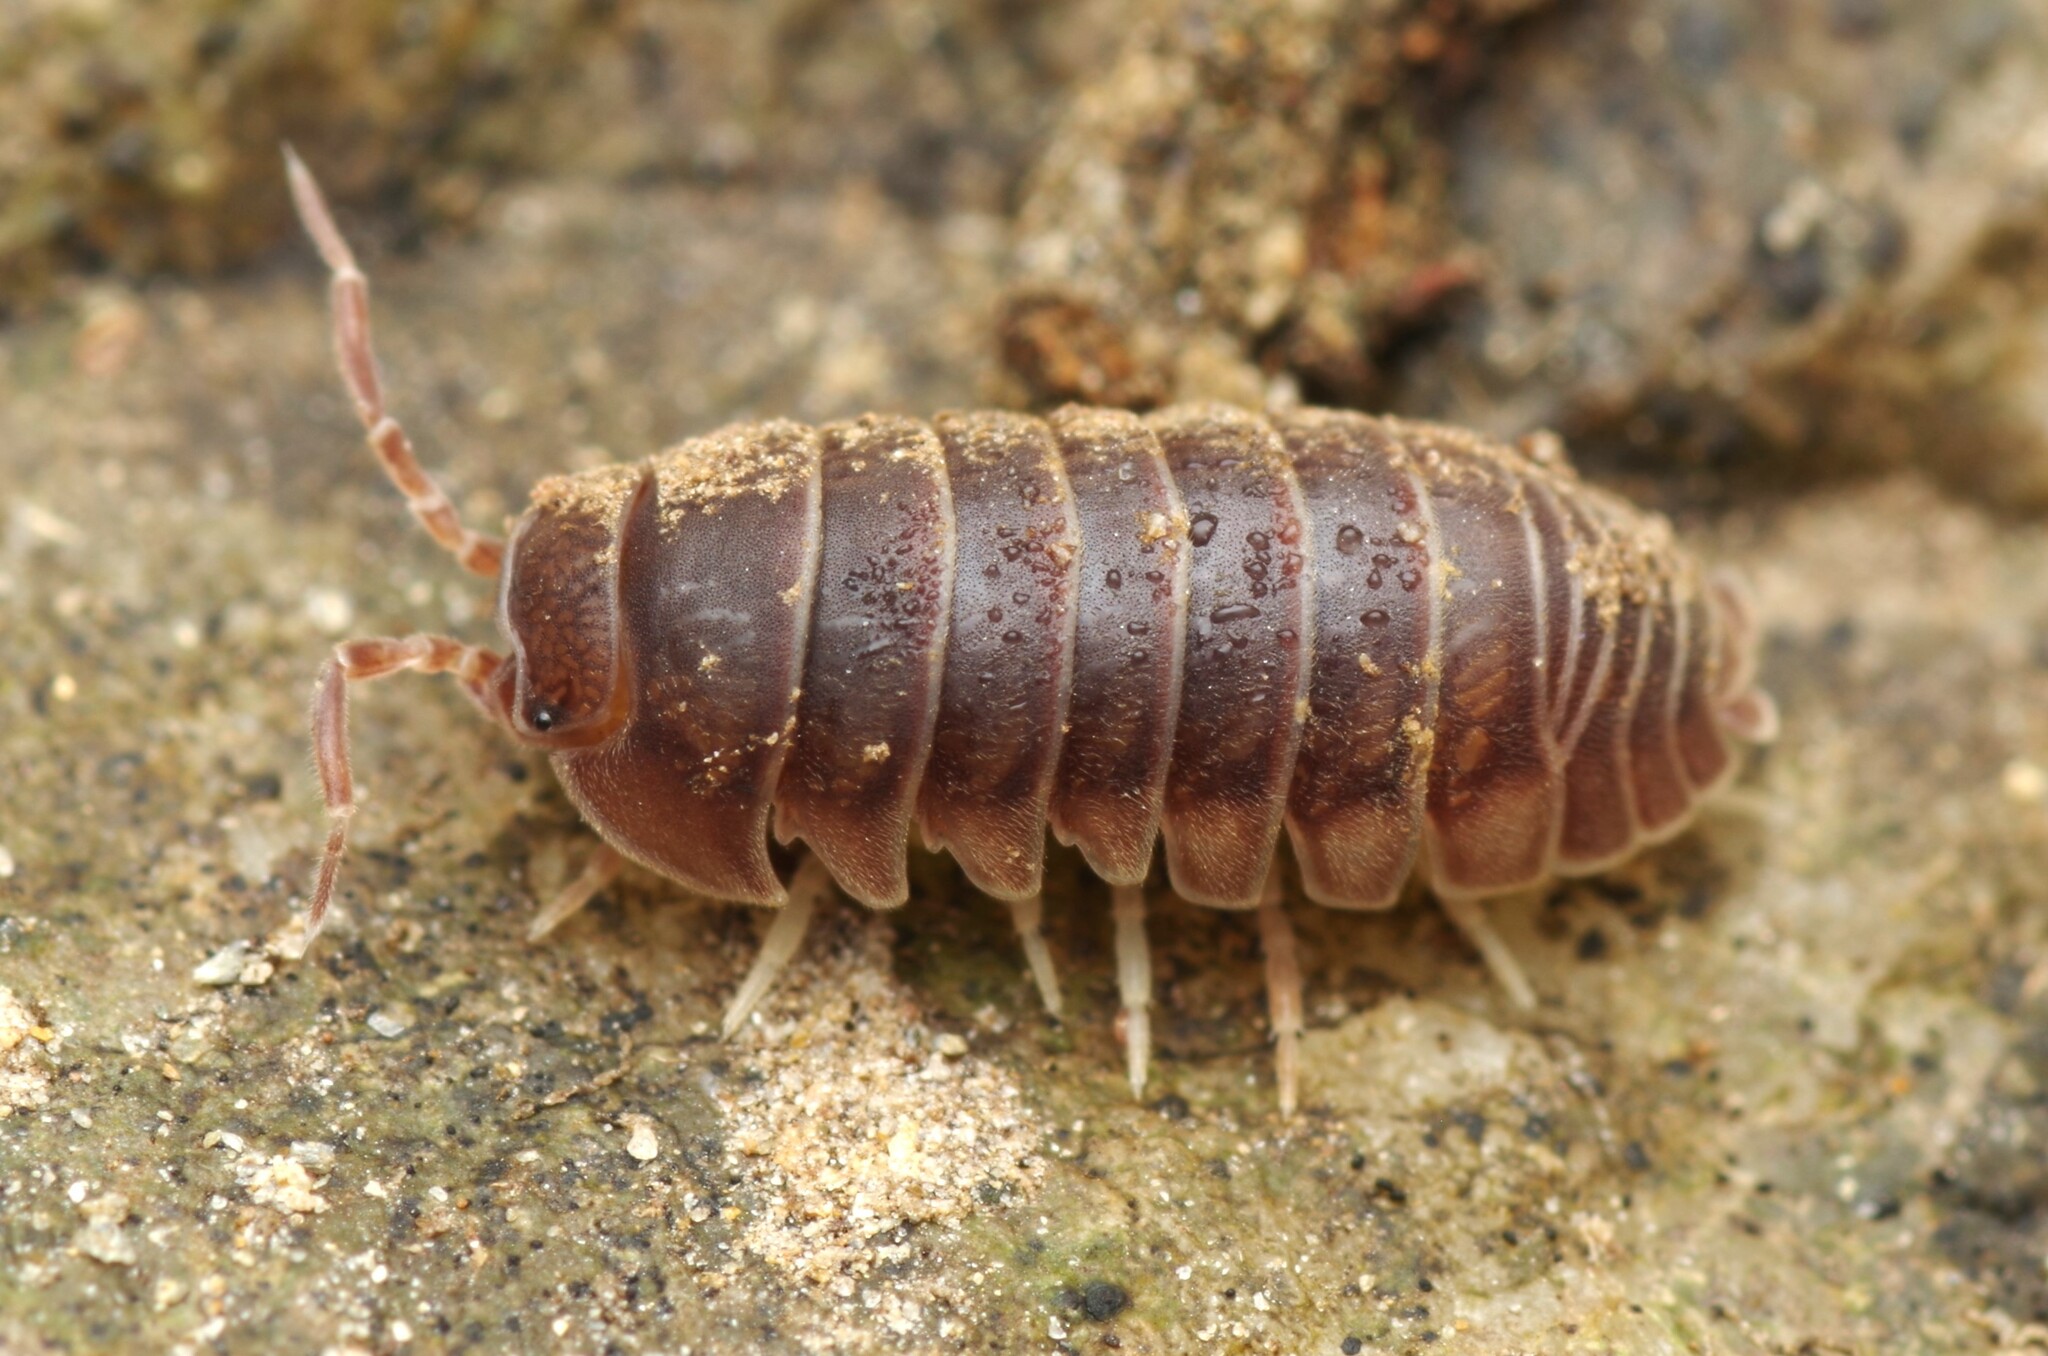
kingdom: Animalia
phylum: Arthropoda
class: Malacostraca
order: Isopoda
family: Armadillidiidae
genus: Eluma
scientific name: Eluma caelata
